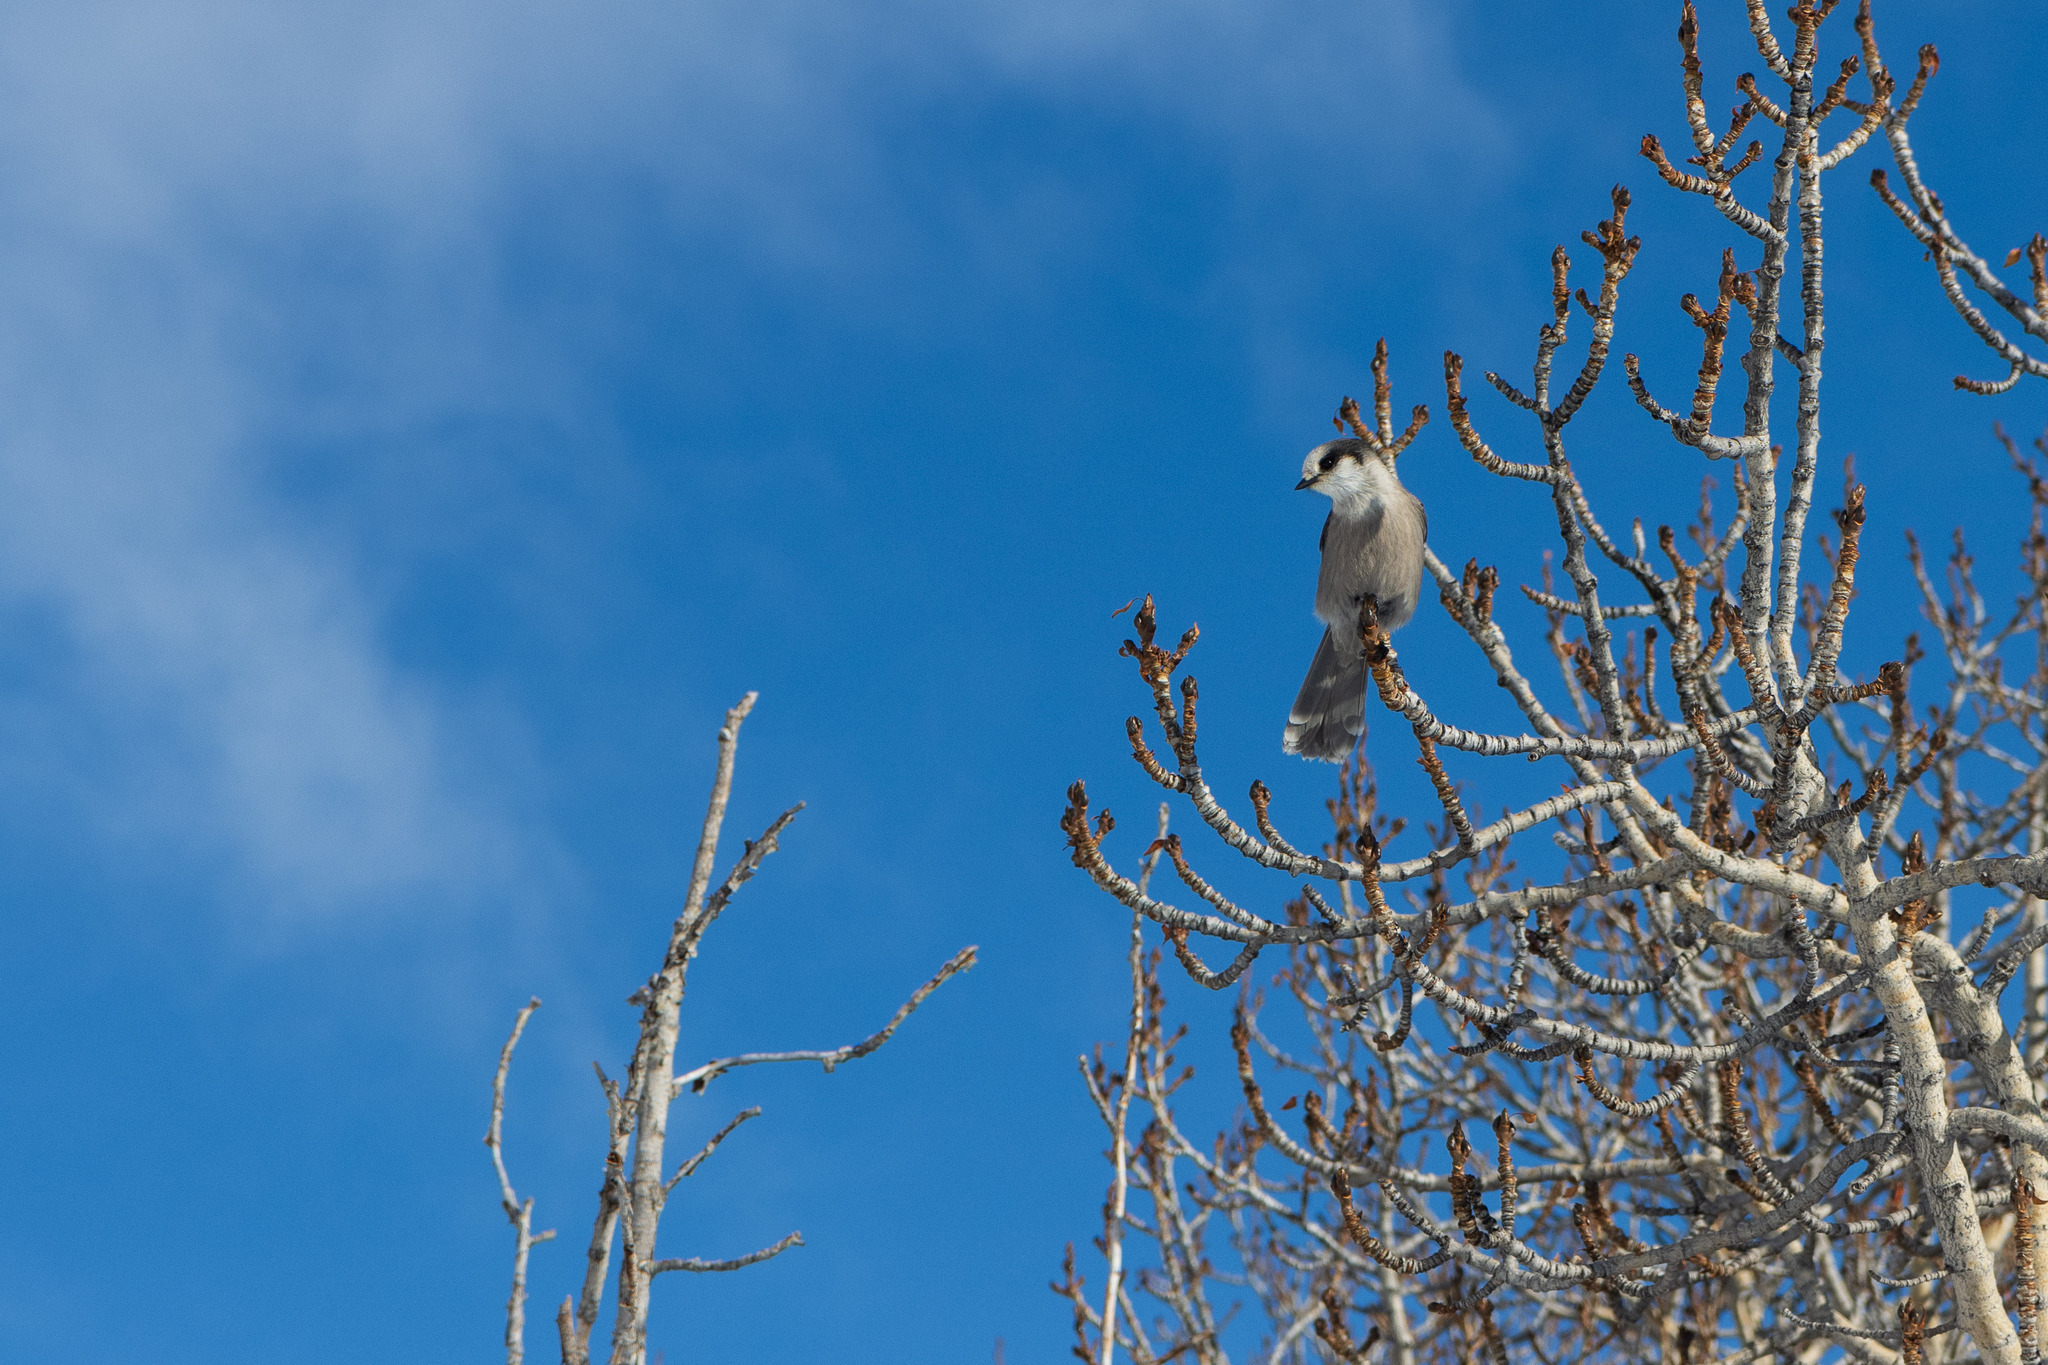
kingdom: Animalia
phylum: Chordata
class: Aves
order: Passeriformes
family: Corvidae
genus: Perisoreus
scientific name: Perisoreus canadensis
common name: Gray jay
